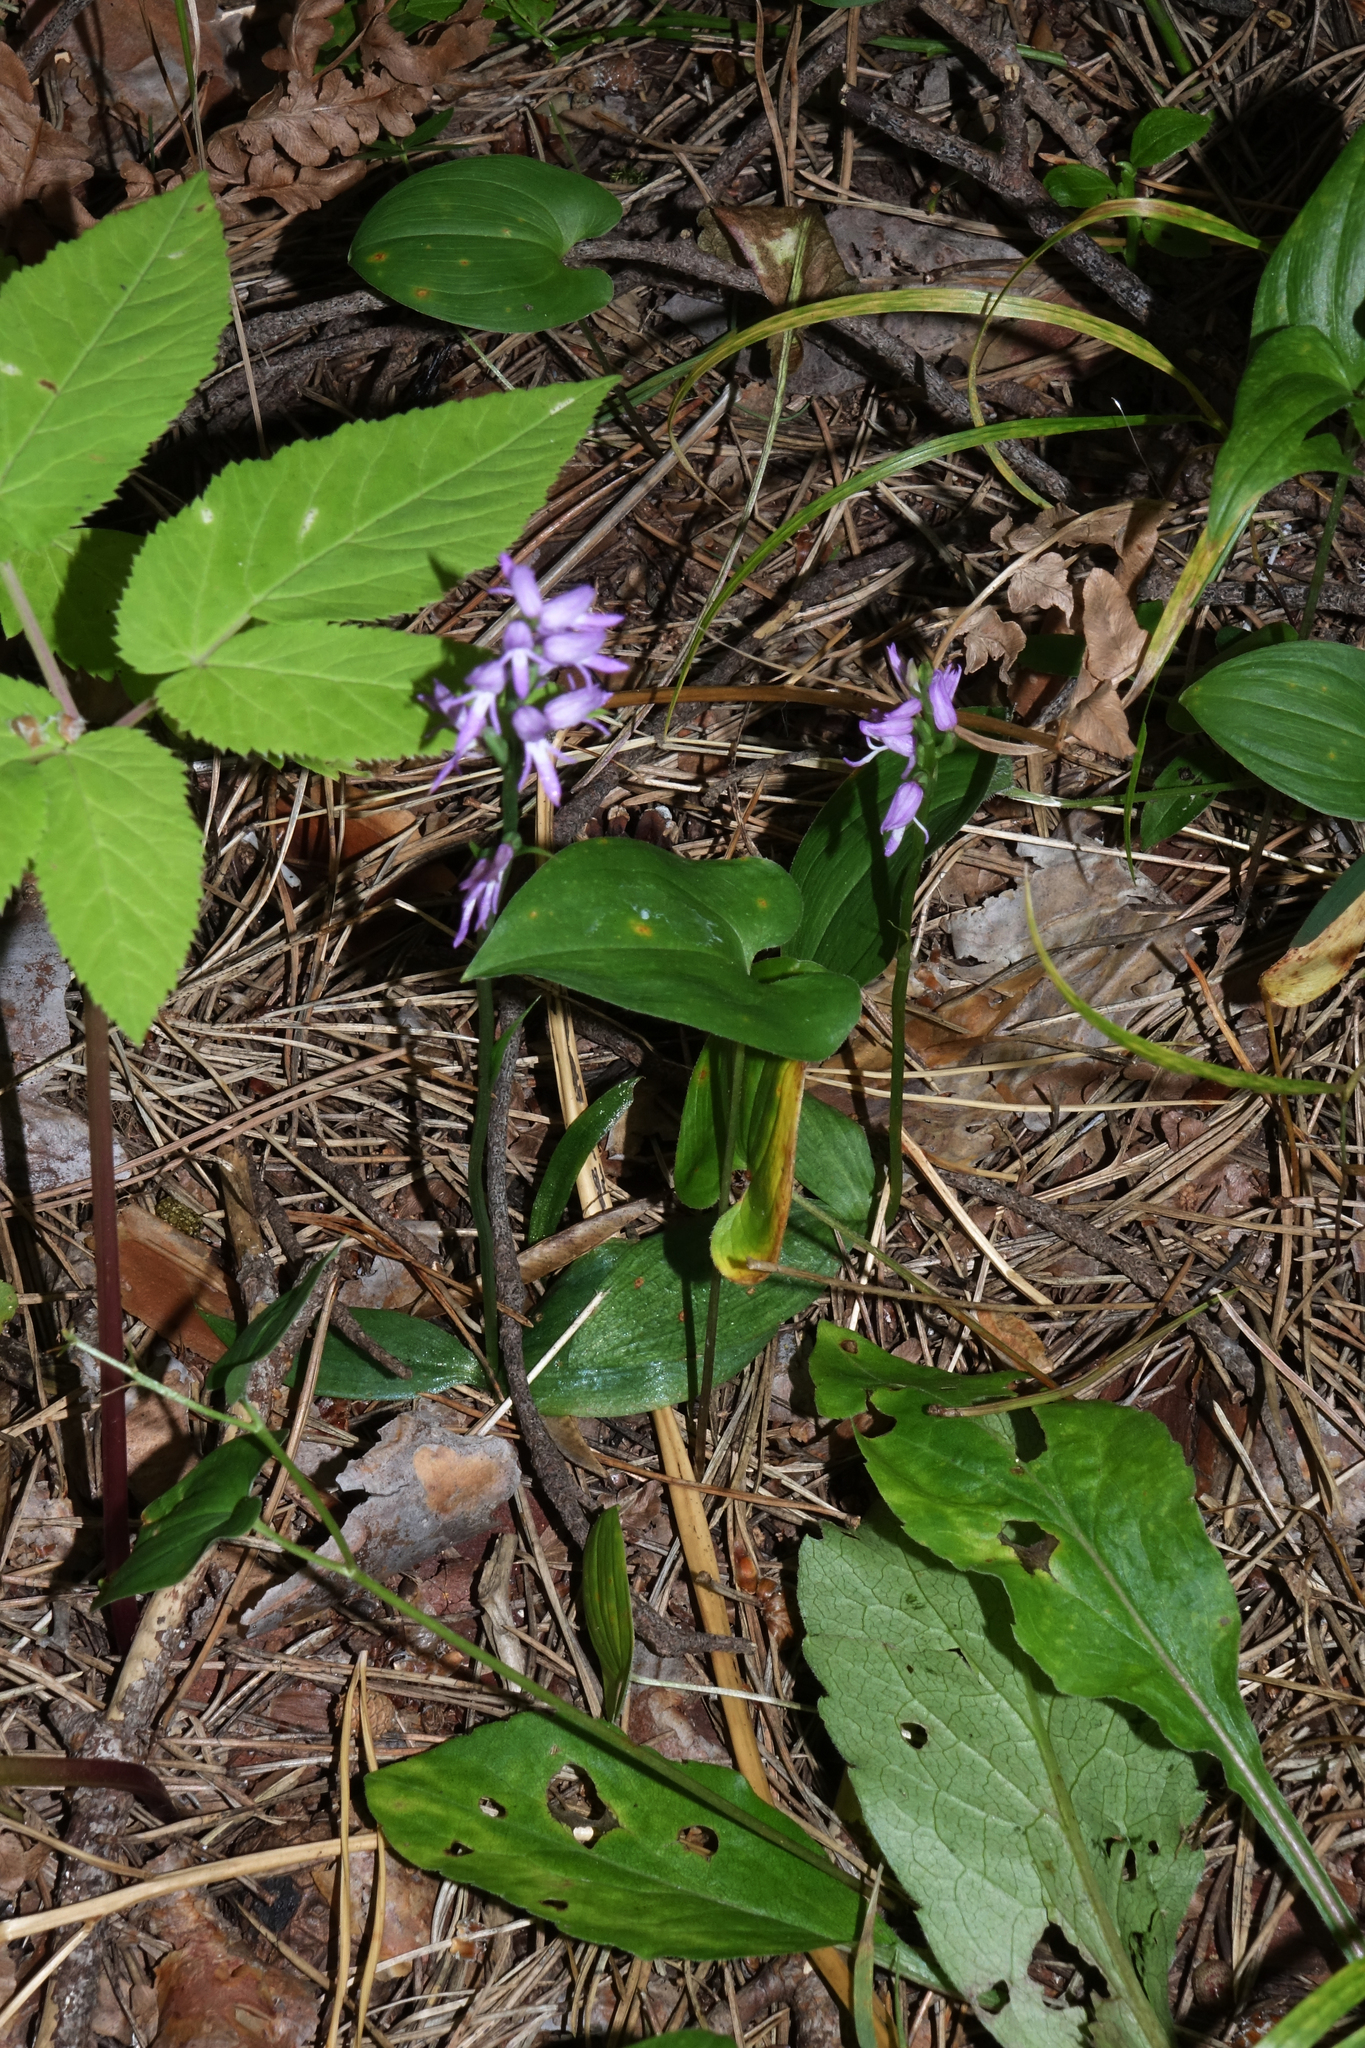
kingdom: Plantae
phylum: Tracheophyta
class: Liliopsida
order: Asparagales
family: Orchidaceae
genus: Hemipilia
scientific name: Hemipilia cucullata
